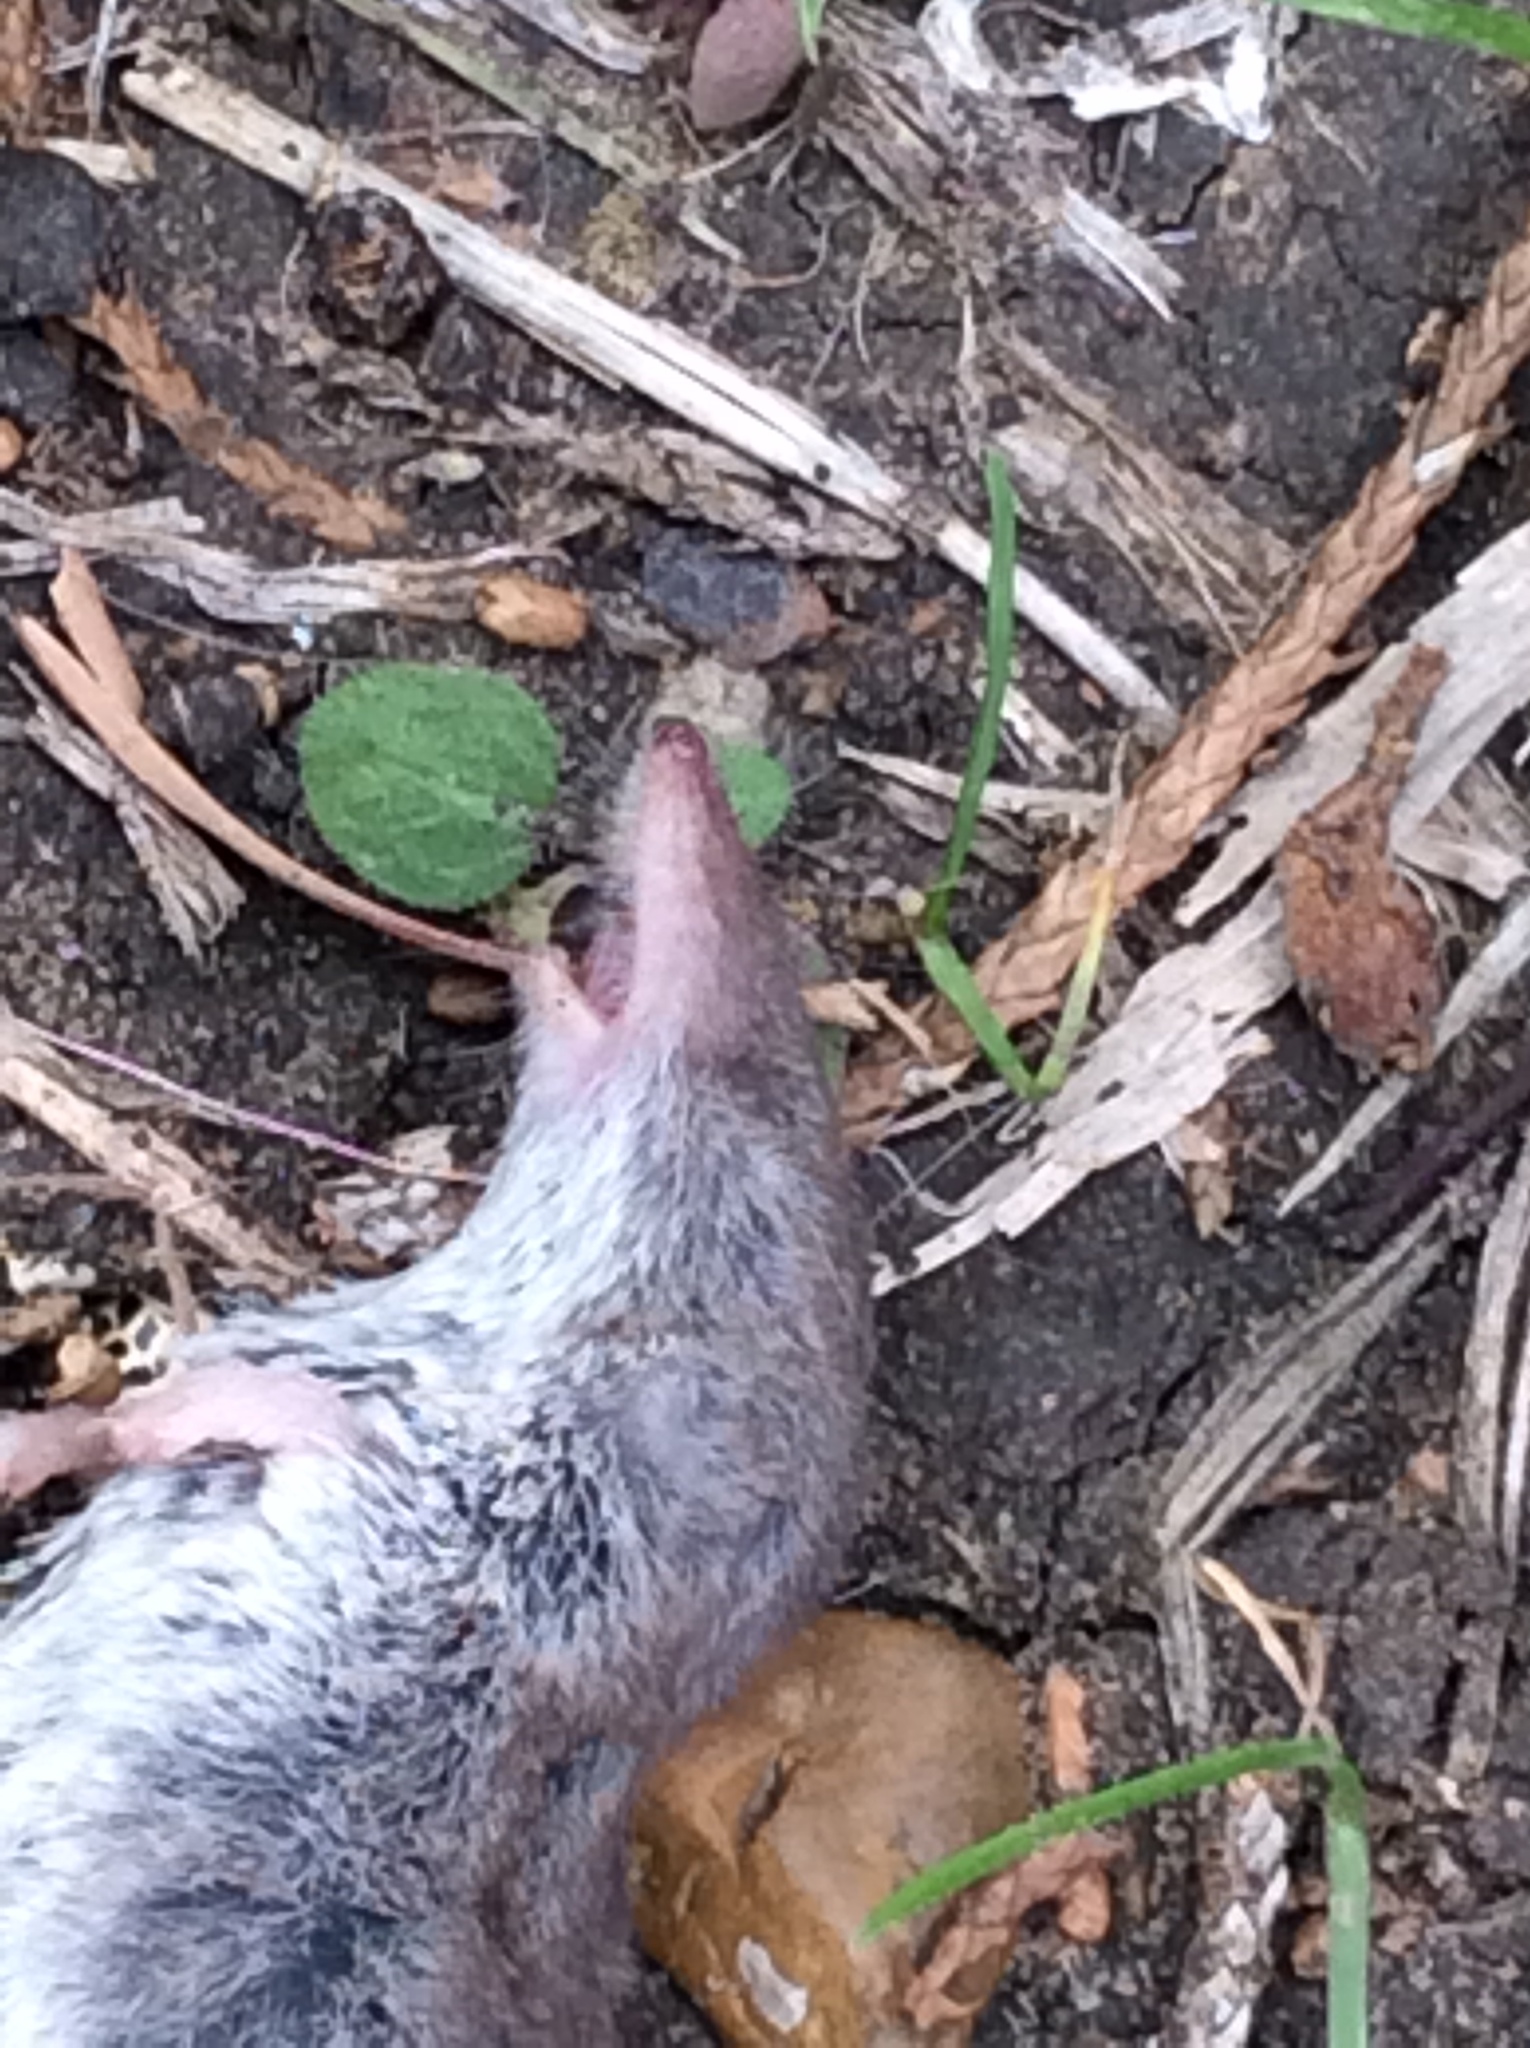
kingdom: Animalia
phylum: Chordata
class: Mammalia
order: Soricomorpha
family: Soricidae
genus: Cryptotis
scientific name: Cryptotis parva
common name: North american least shrew
